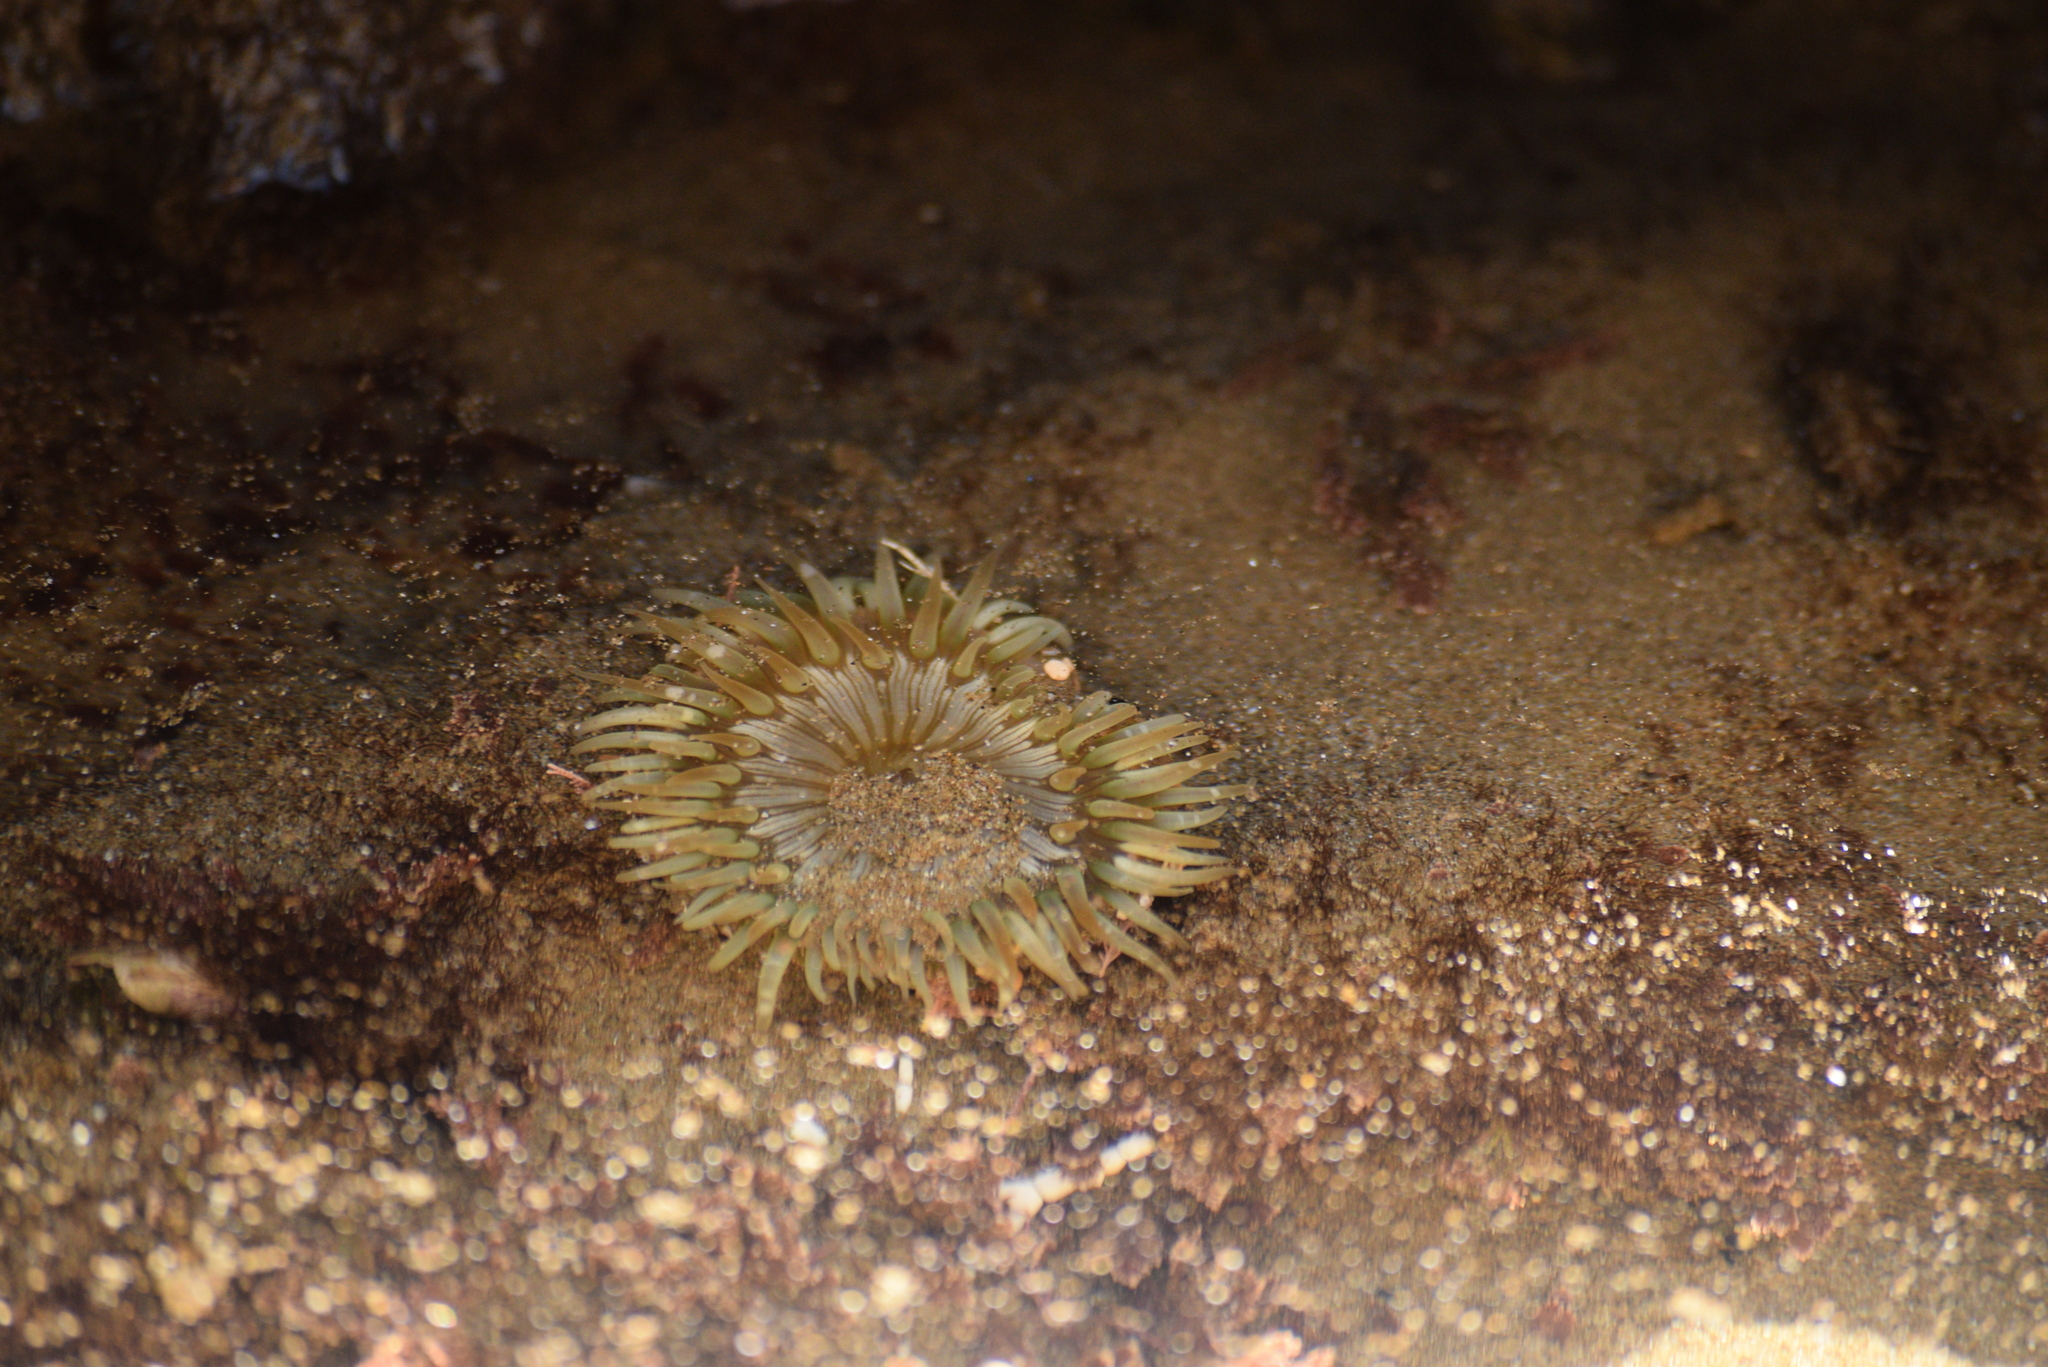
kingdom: Animalia
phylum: Cnidaria
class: Anthozoa
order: Actiniaria
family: Actiniidae
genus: Anthopleura
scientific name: Anthopleura sola
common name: Sun anemone
